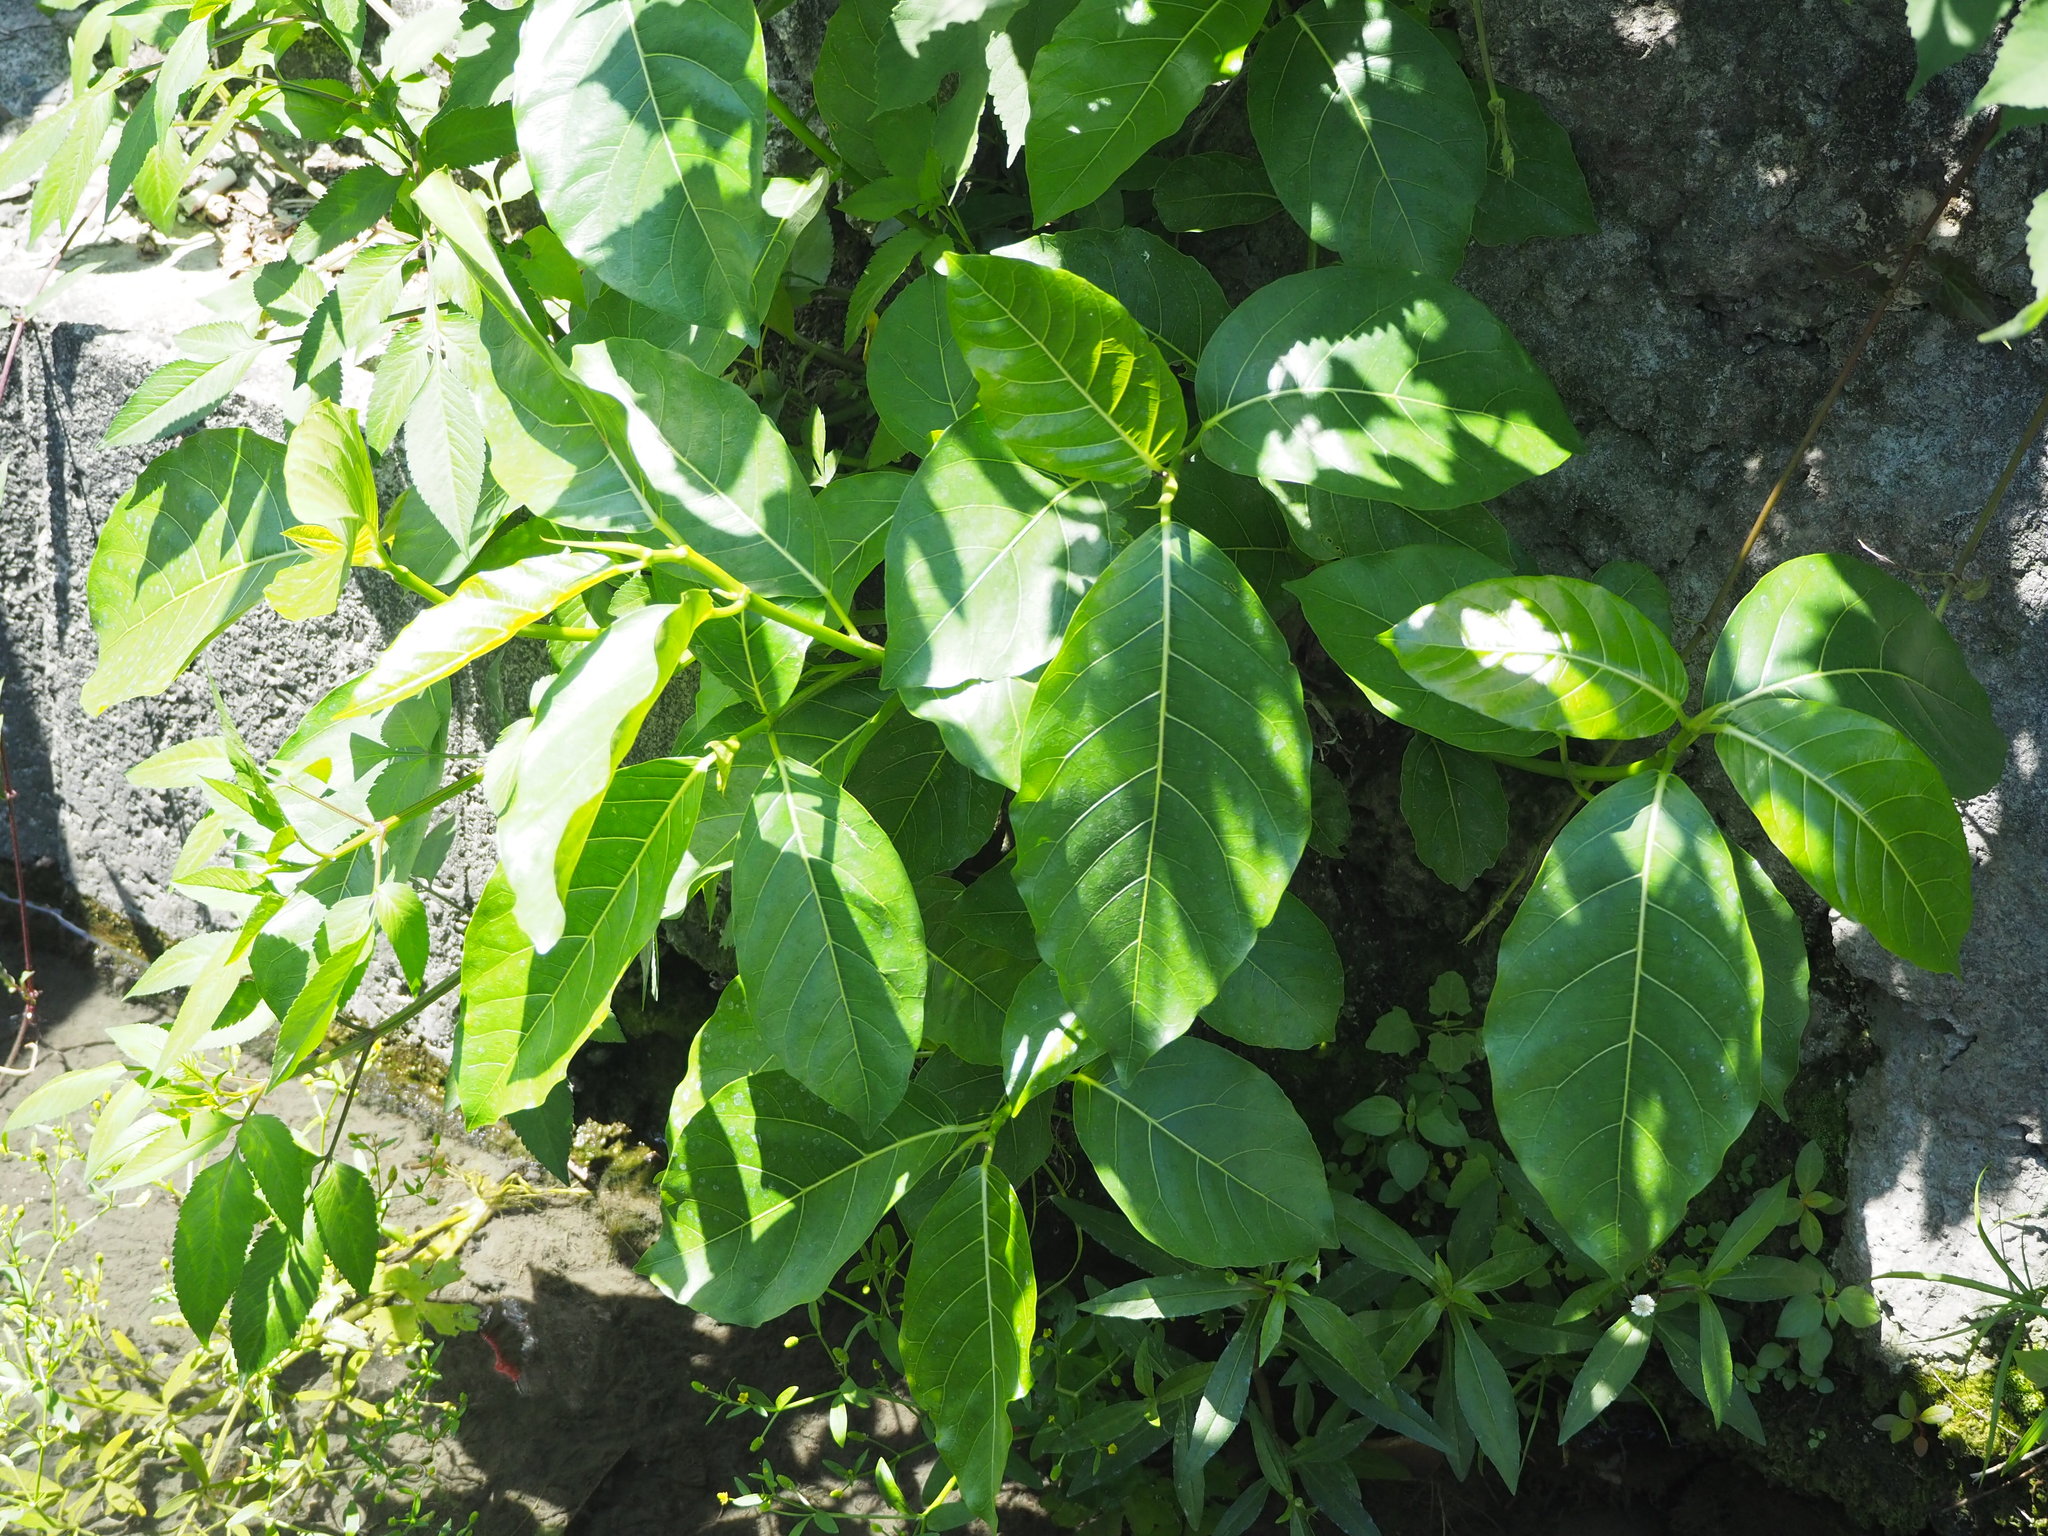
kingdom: Plantae
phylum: Tracheophyta
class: Magnoliopsida
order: Boraginales
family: Ehretiaceae
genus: Ehretia
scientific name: Ehretia resinosa
